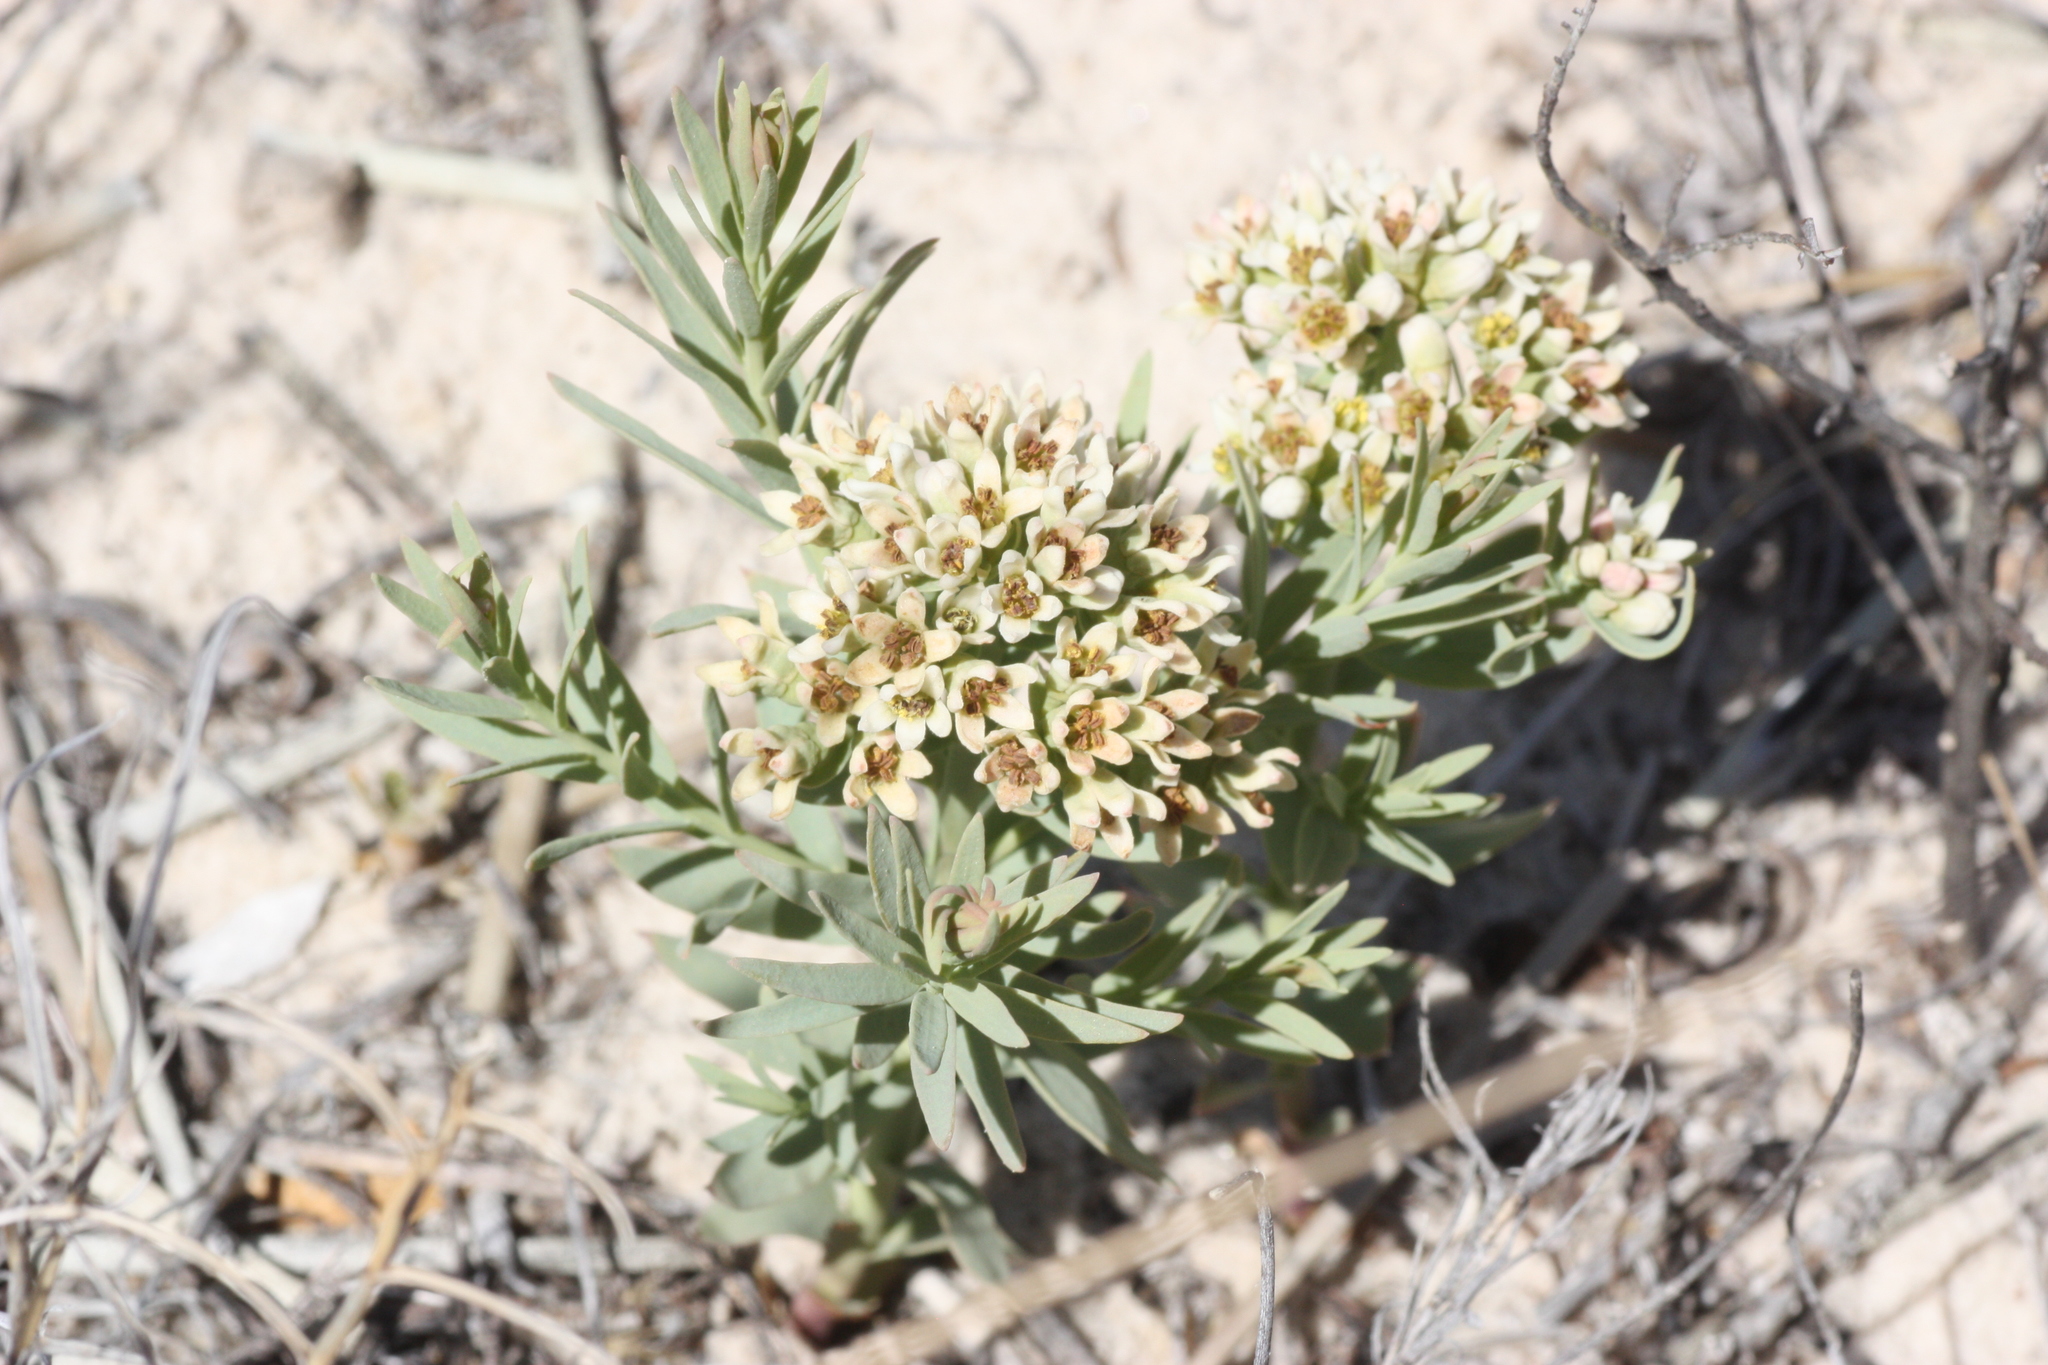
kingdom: Plantae
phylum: Tracheophyta
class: Magnoliopsida
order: Santalales
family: Comandraceae
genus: Comandra
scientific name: Comandra umbellata
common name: Bastard toadflax
